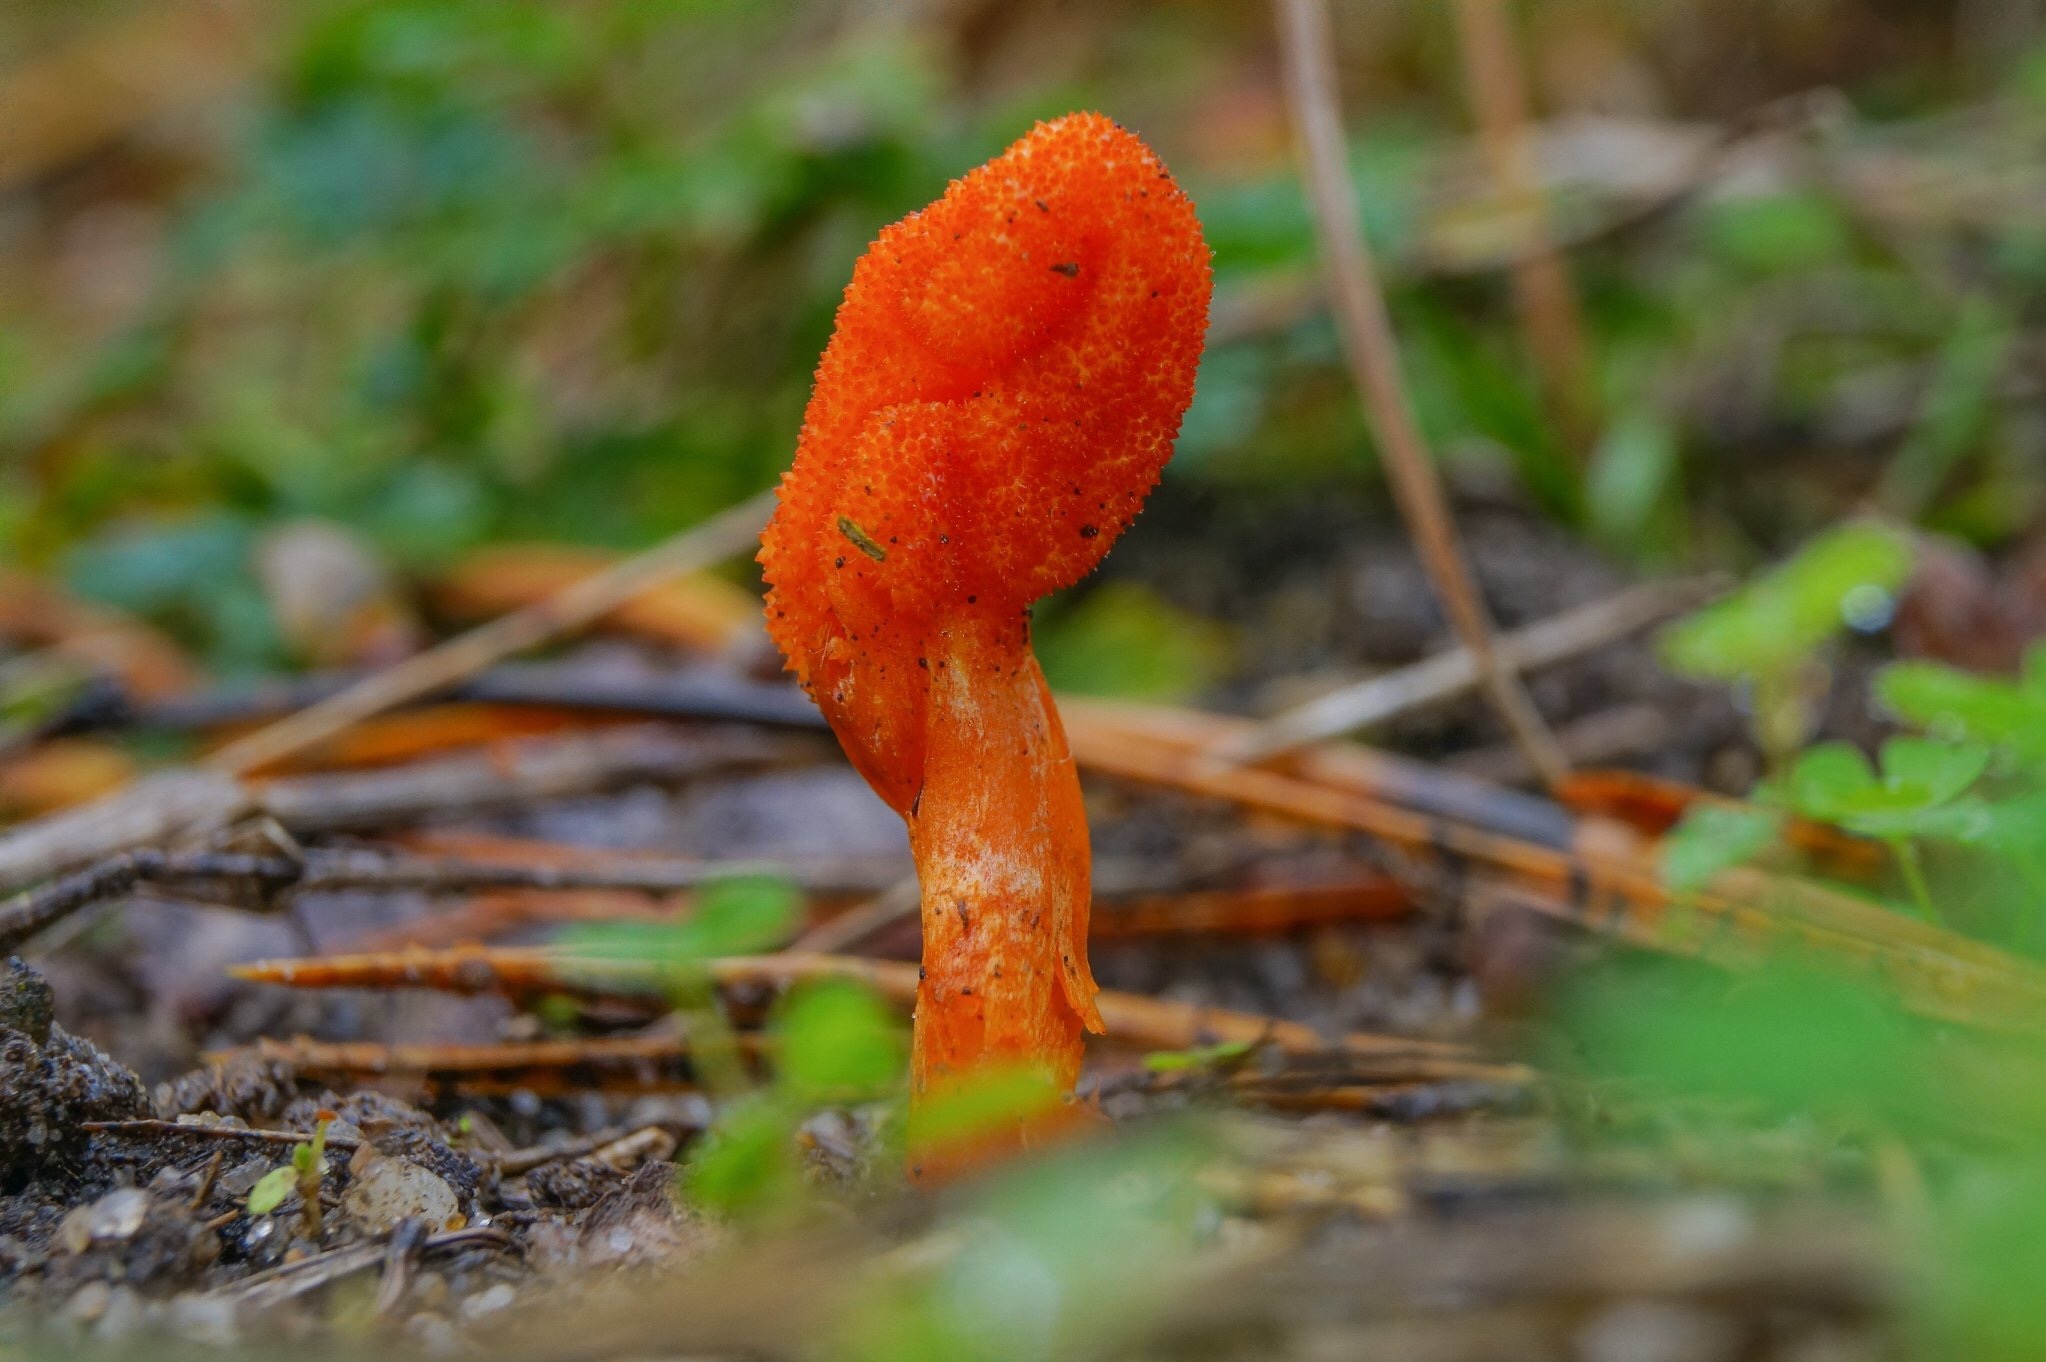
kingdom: Fungi
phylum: Ascomycota
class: Sordariomycetes
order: Hypocreales
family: Cordycipitaceae
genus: Cordyceps
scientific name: Cordyceps militaris
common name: Scarlet caterpillar fungus
